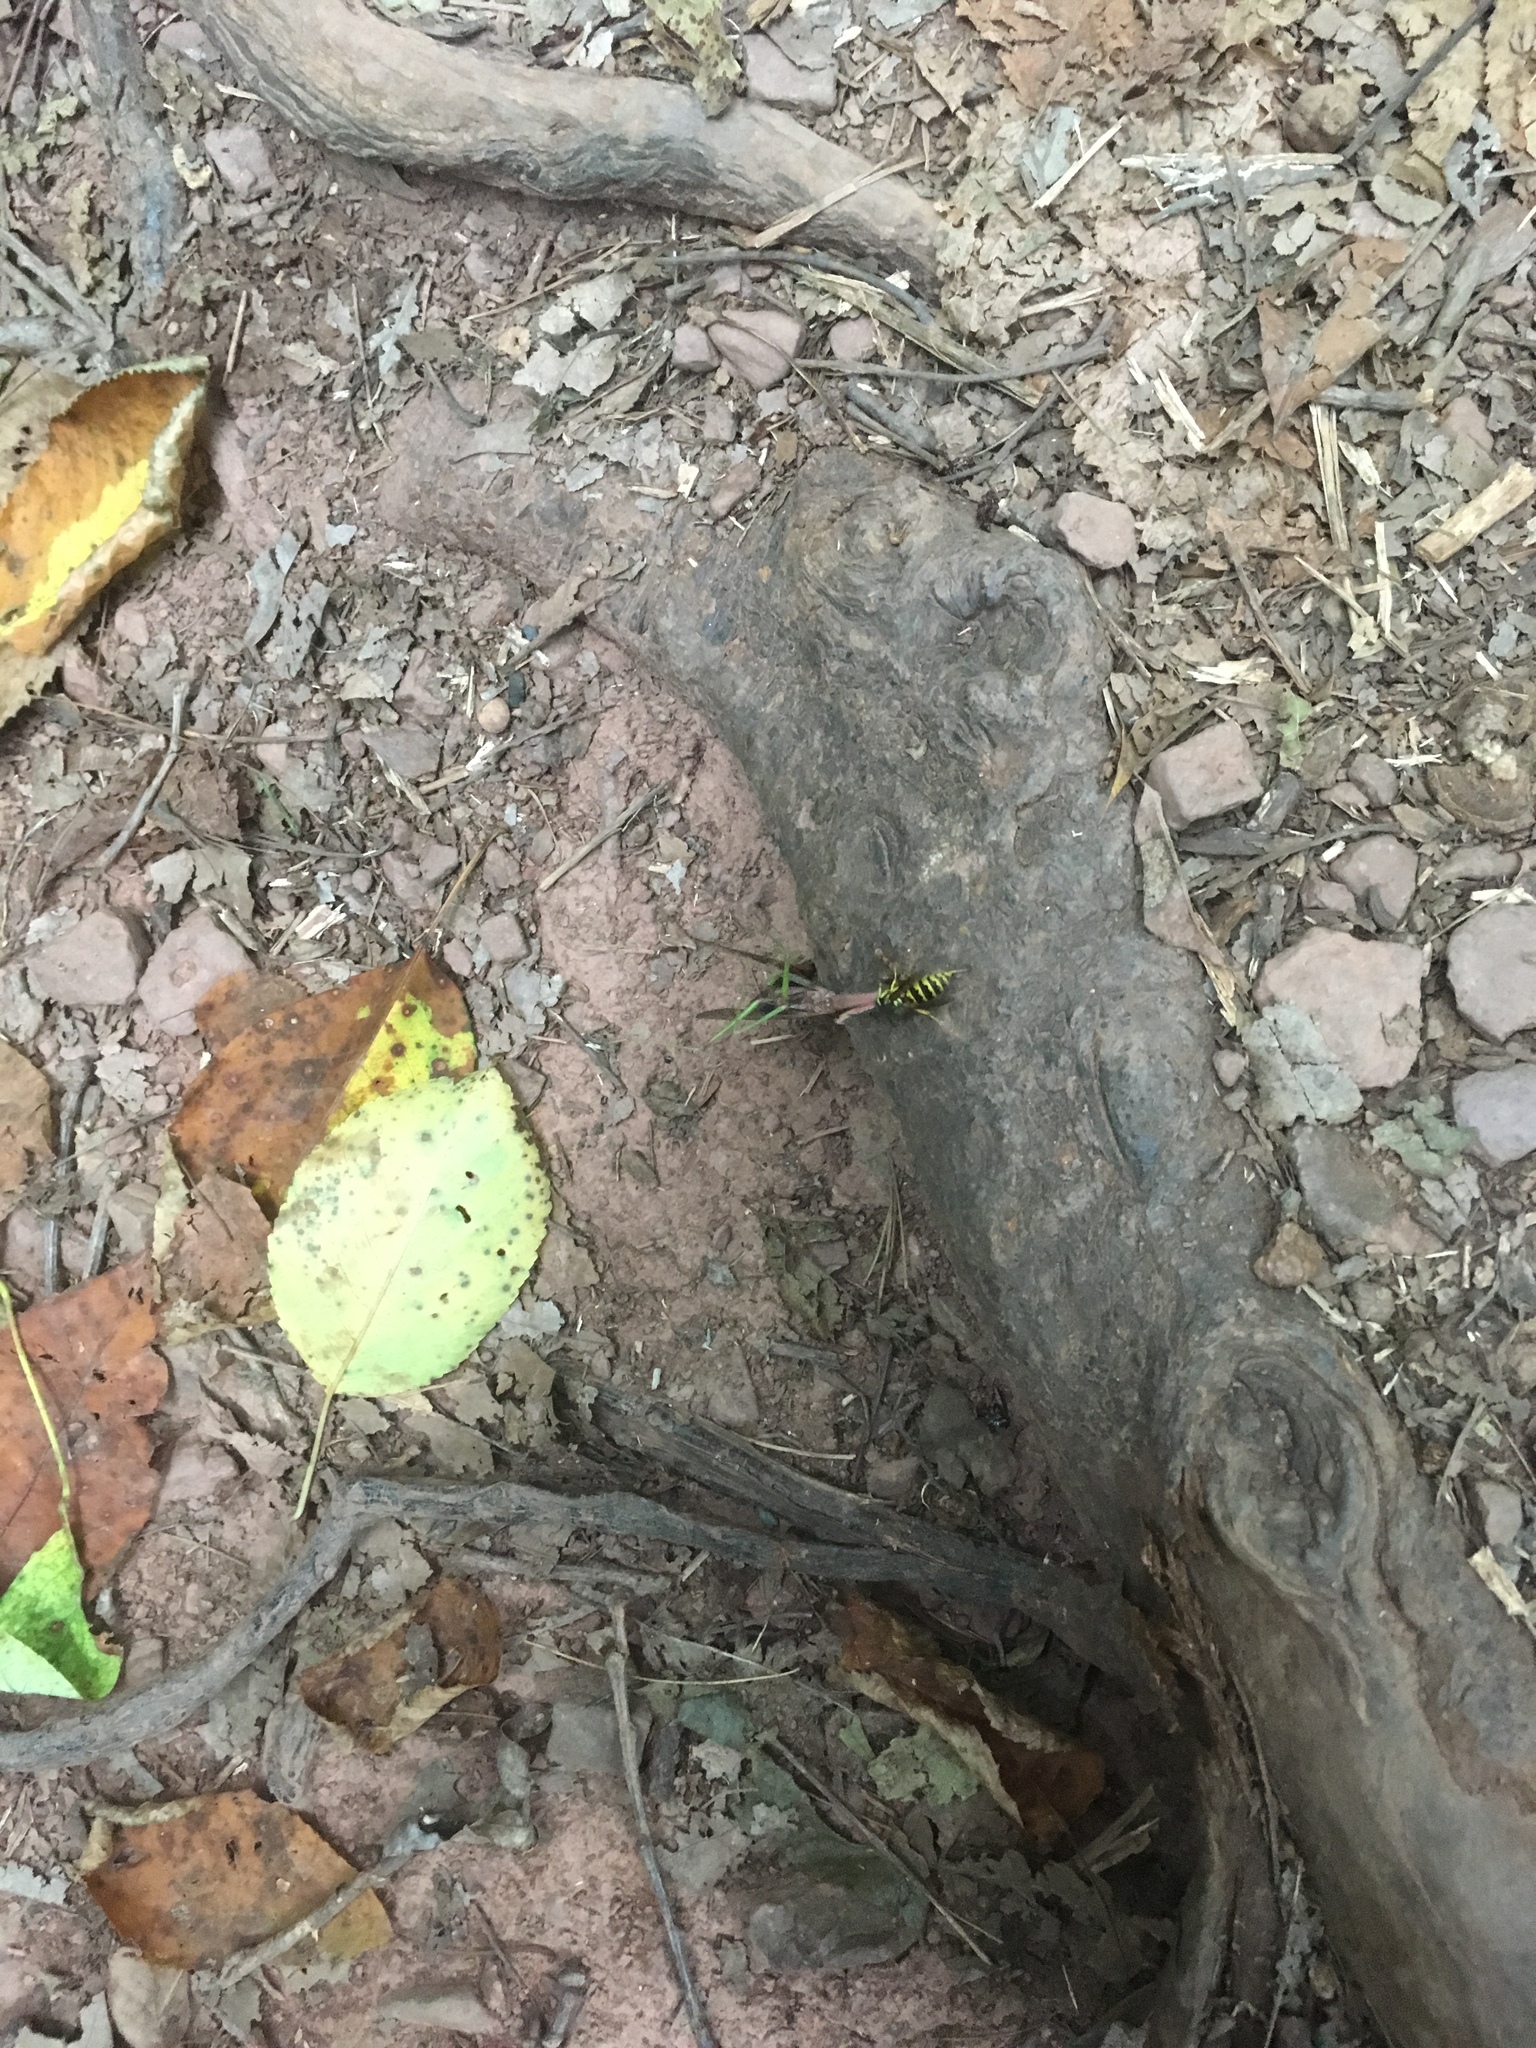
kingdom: Animalia
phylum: Arthropoda
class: Insecta
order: Hymenoptera
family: Vespidae
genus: Vespula
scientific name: Vespula flavopilosa
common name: Downy yellowjacket
